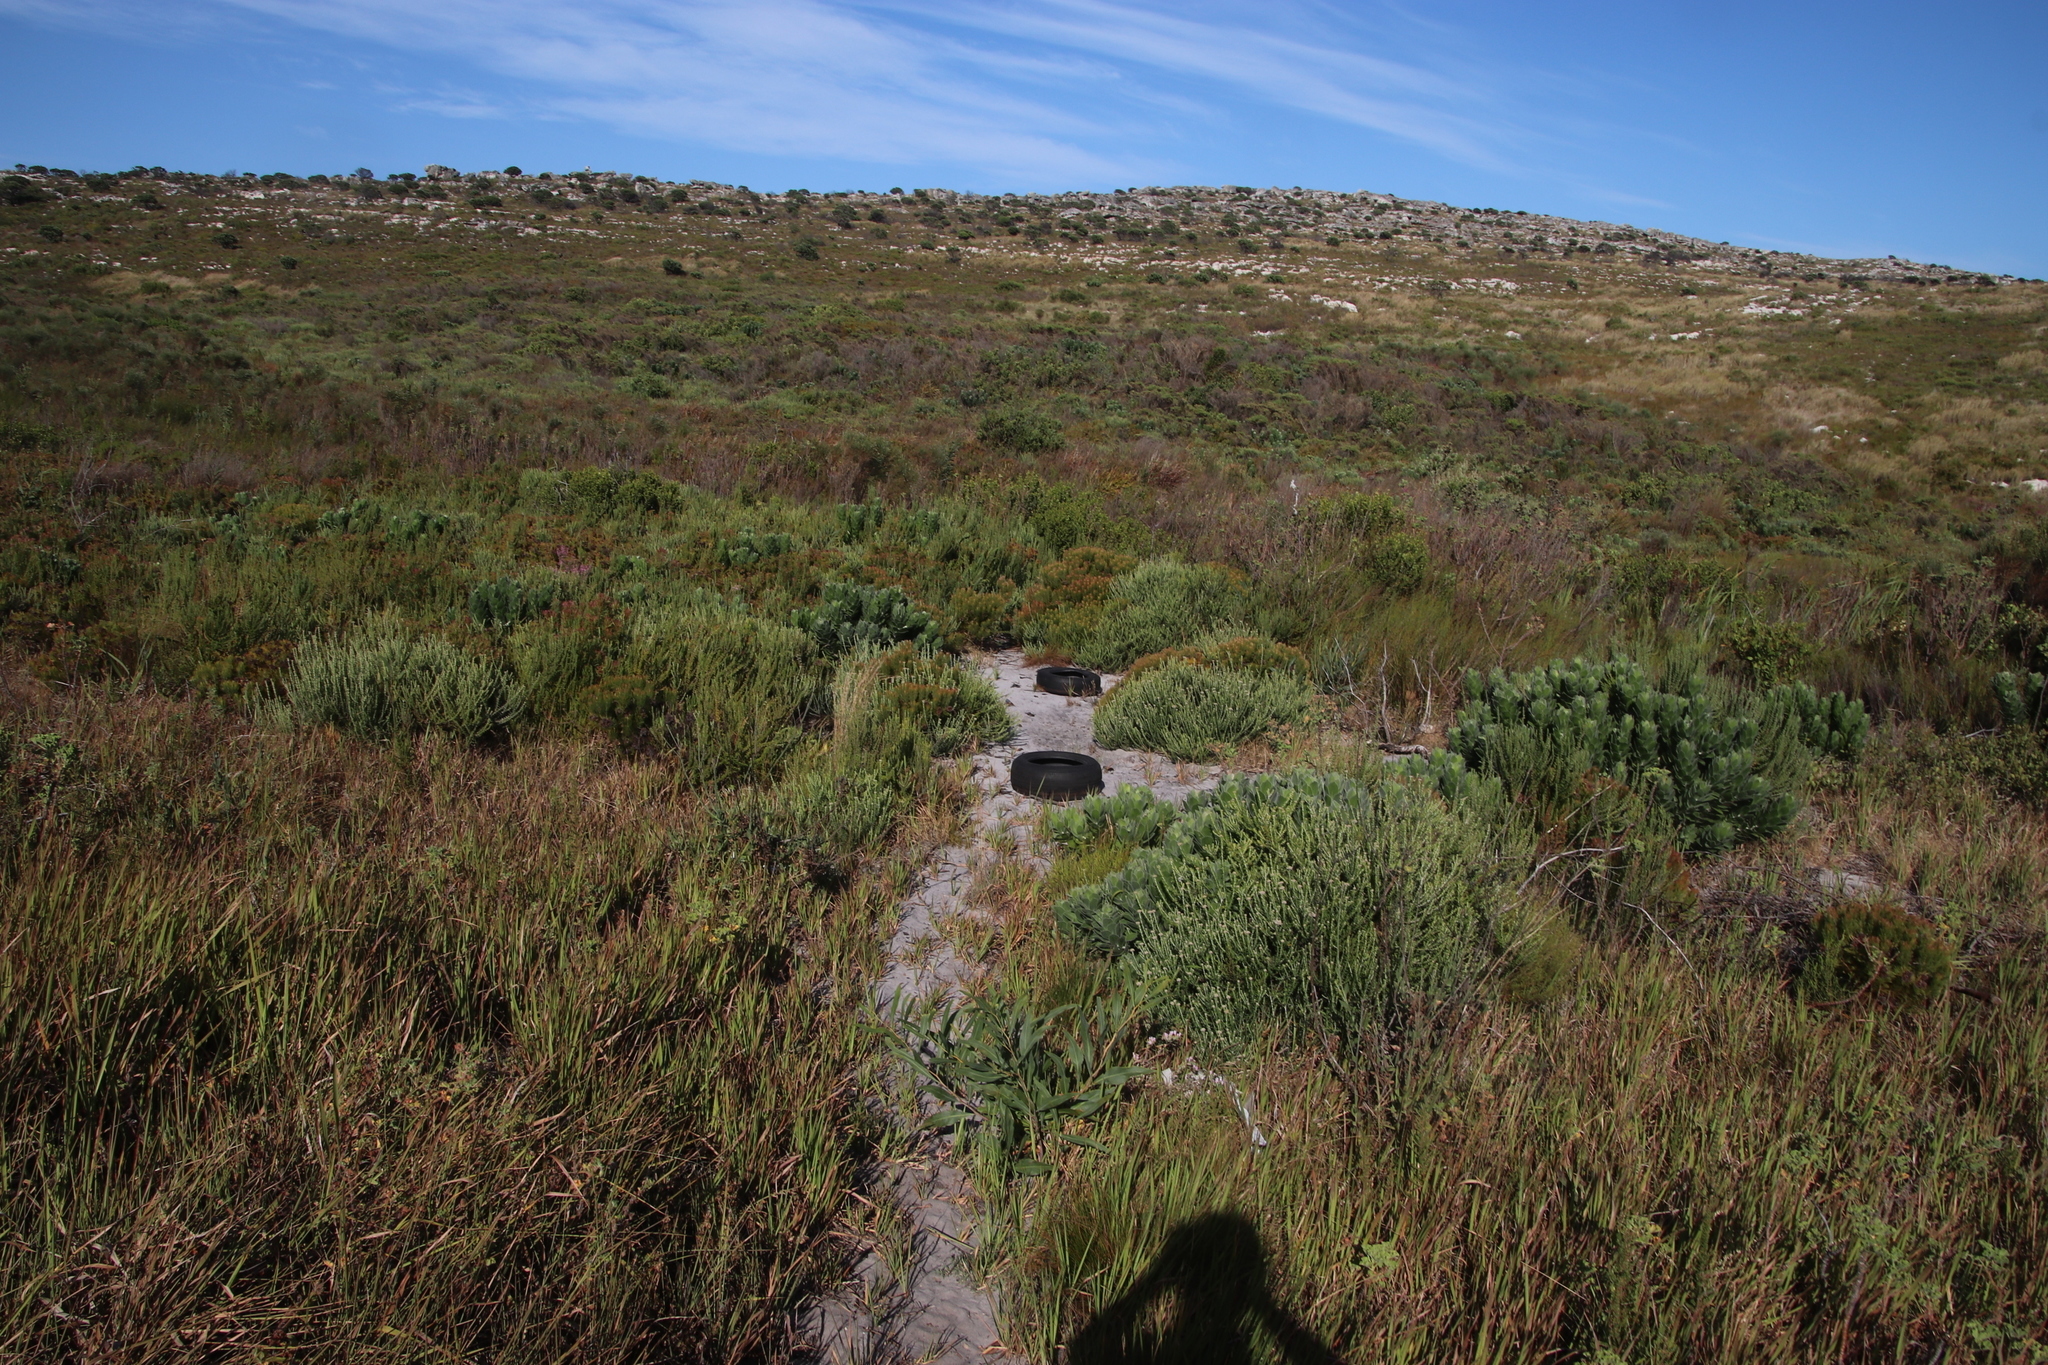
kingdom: Plantae
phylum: Tracheophyta
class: Magnoliopsida
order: Proteales
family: Proteaceae
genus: Leucospermum
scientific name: Leucospermum conocarpodendron
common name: Tree pincushion
